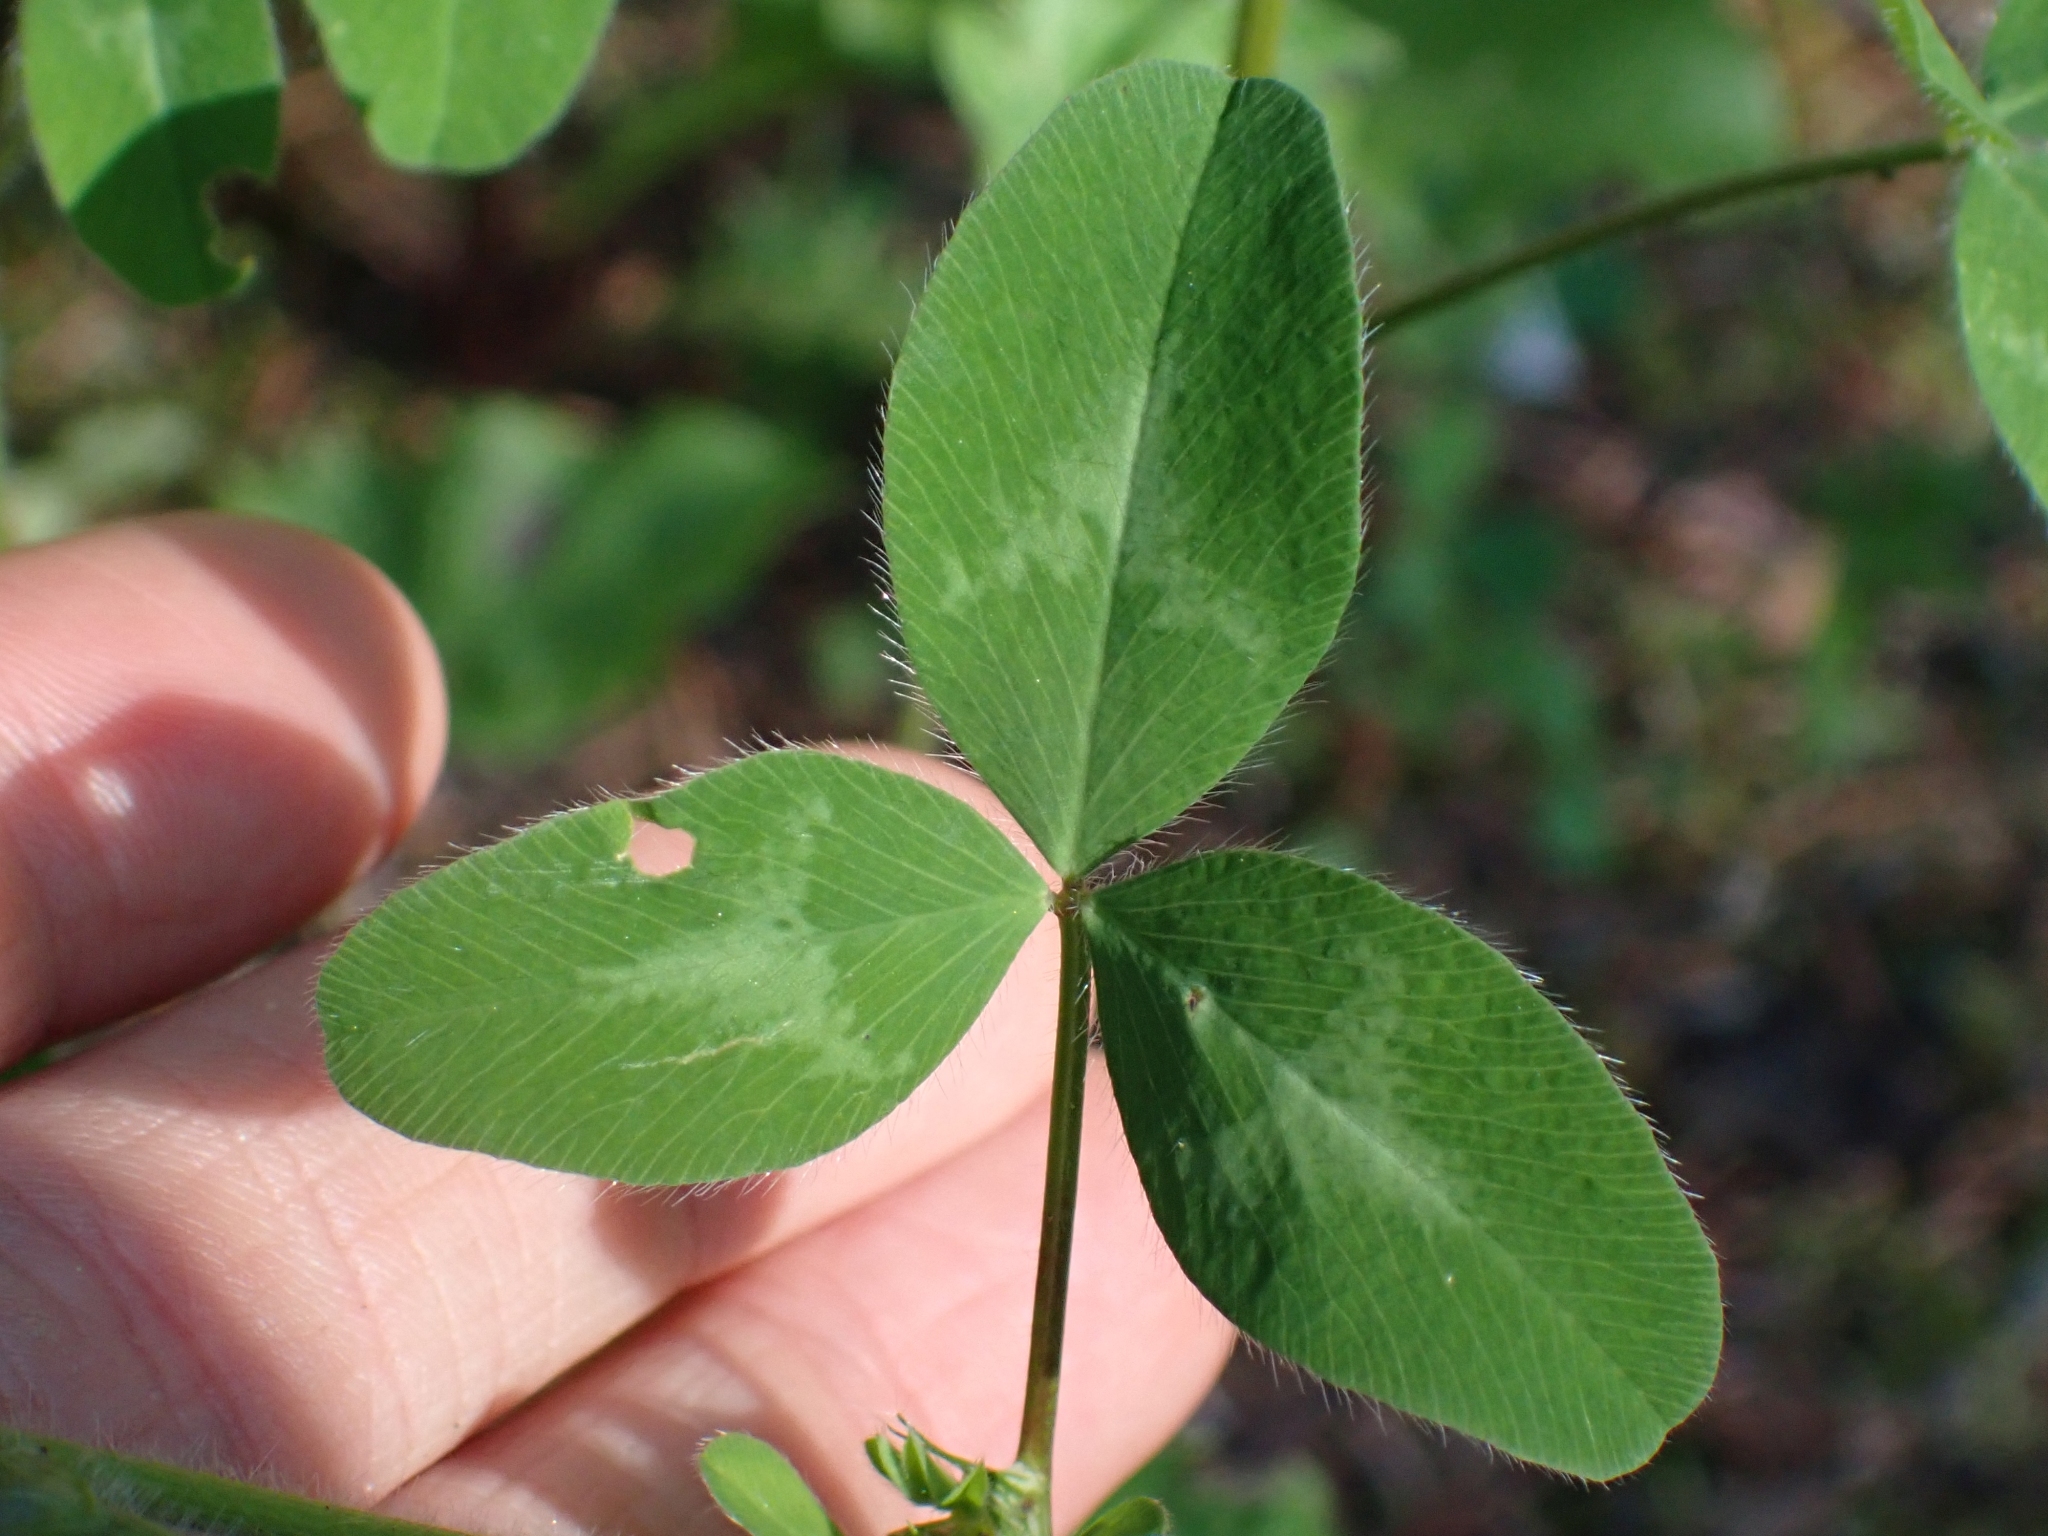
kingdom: Plantae
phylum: Tracheophyta
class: Magnoliopsida
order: Fabales
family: Fabaceae
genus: Trifolium
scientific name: Trifolium pratense
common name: Red clover
